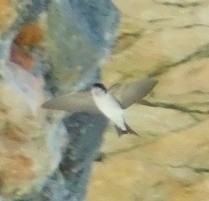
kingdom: Animalia
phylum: Chordata
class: Aves
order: Passeriformes
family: Hirundinidae
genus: Delichon
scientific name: Delichon urbicum
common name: Common house martin
